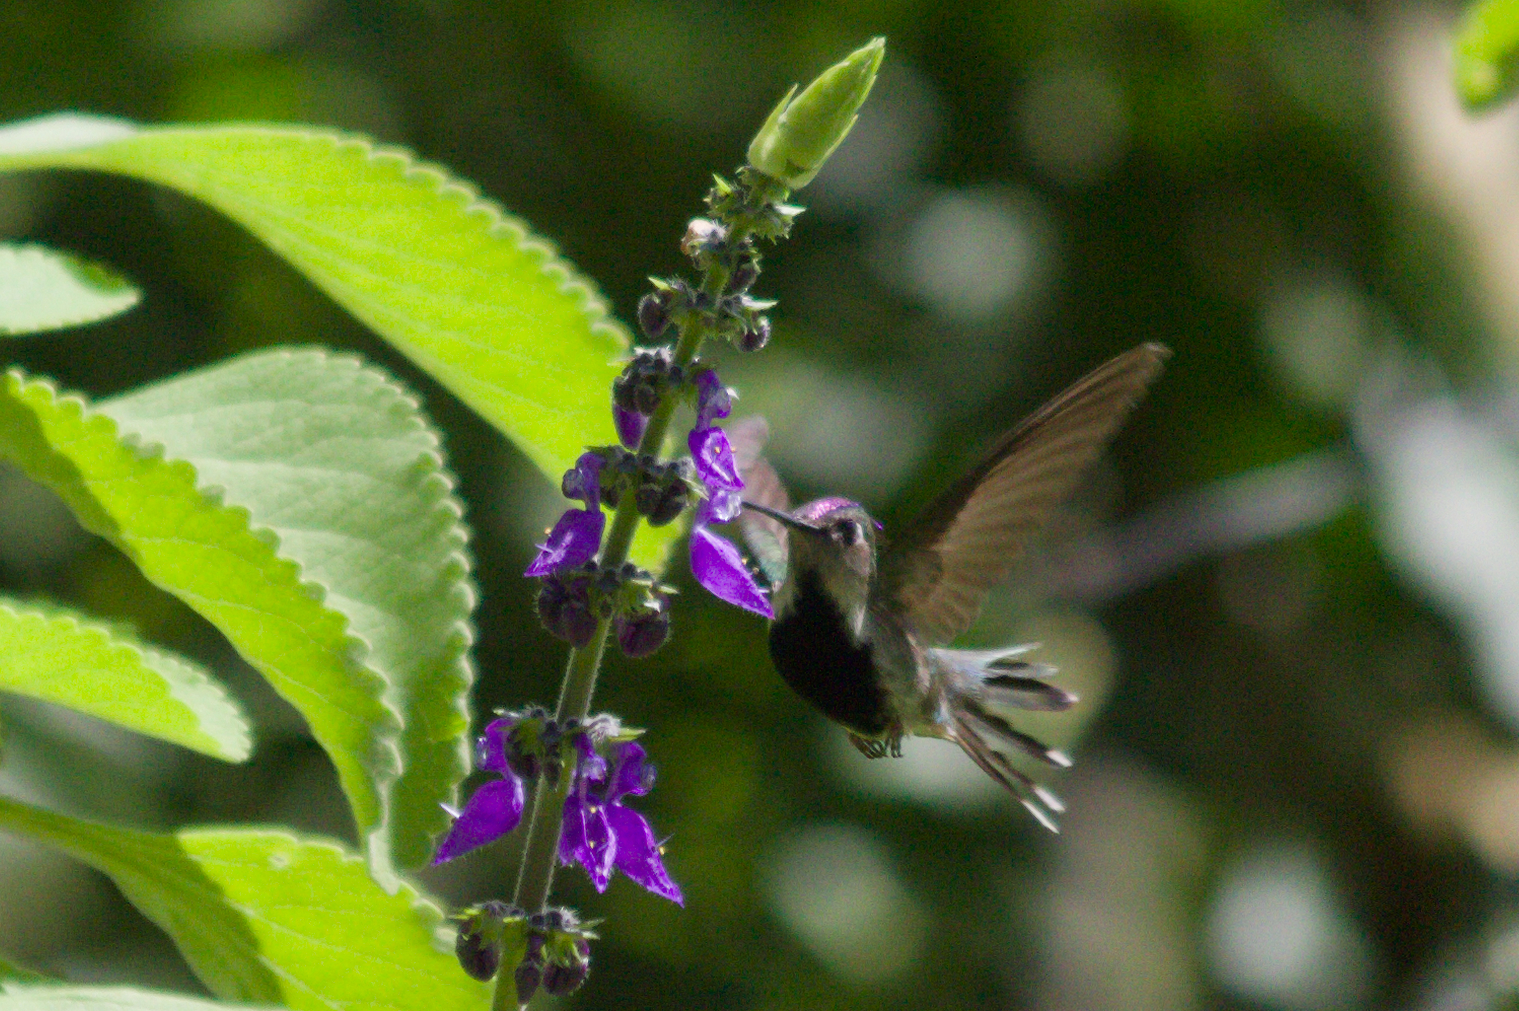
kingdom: Animalia
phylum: Chordata
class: Aves
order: Apodiformes
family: Trochilidae
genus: Stephanoxis
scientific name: Stephanoxis loddigesii
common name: Purple-crowned plovercrest
